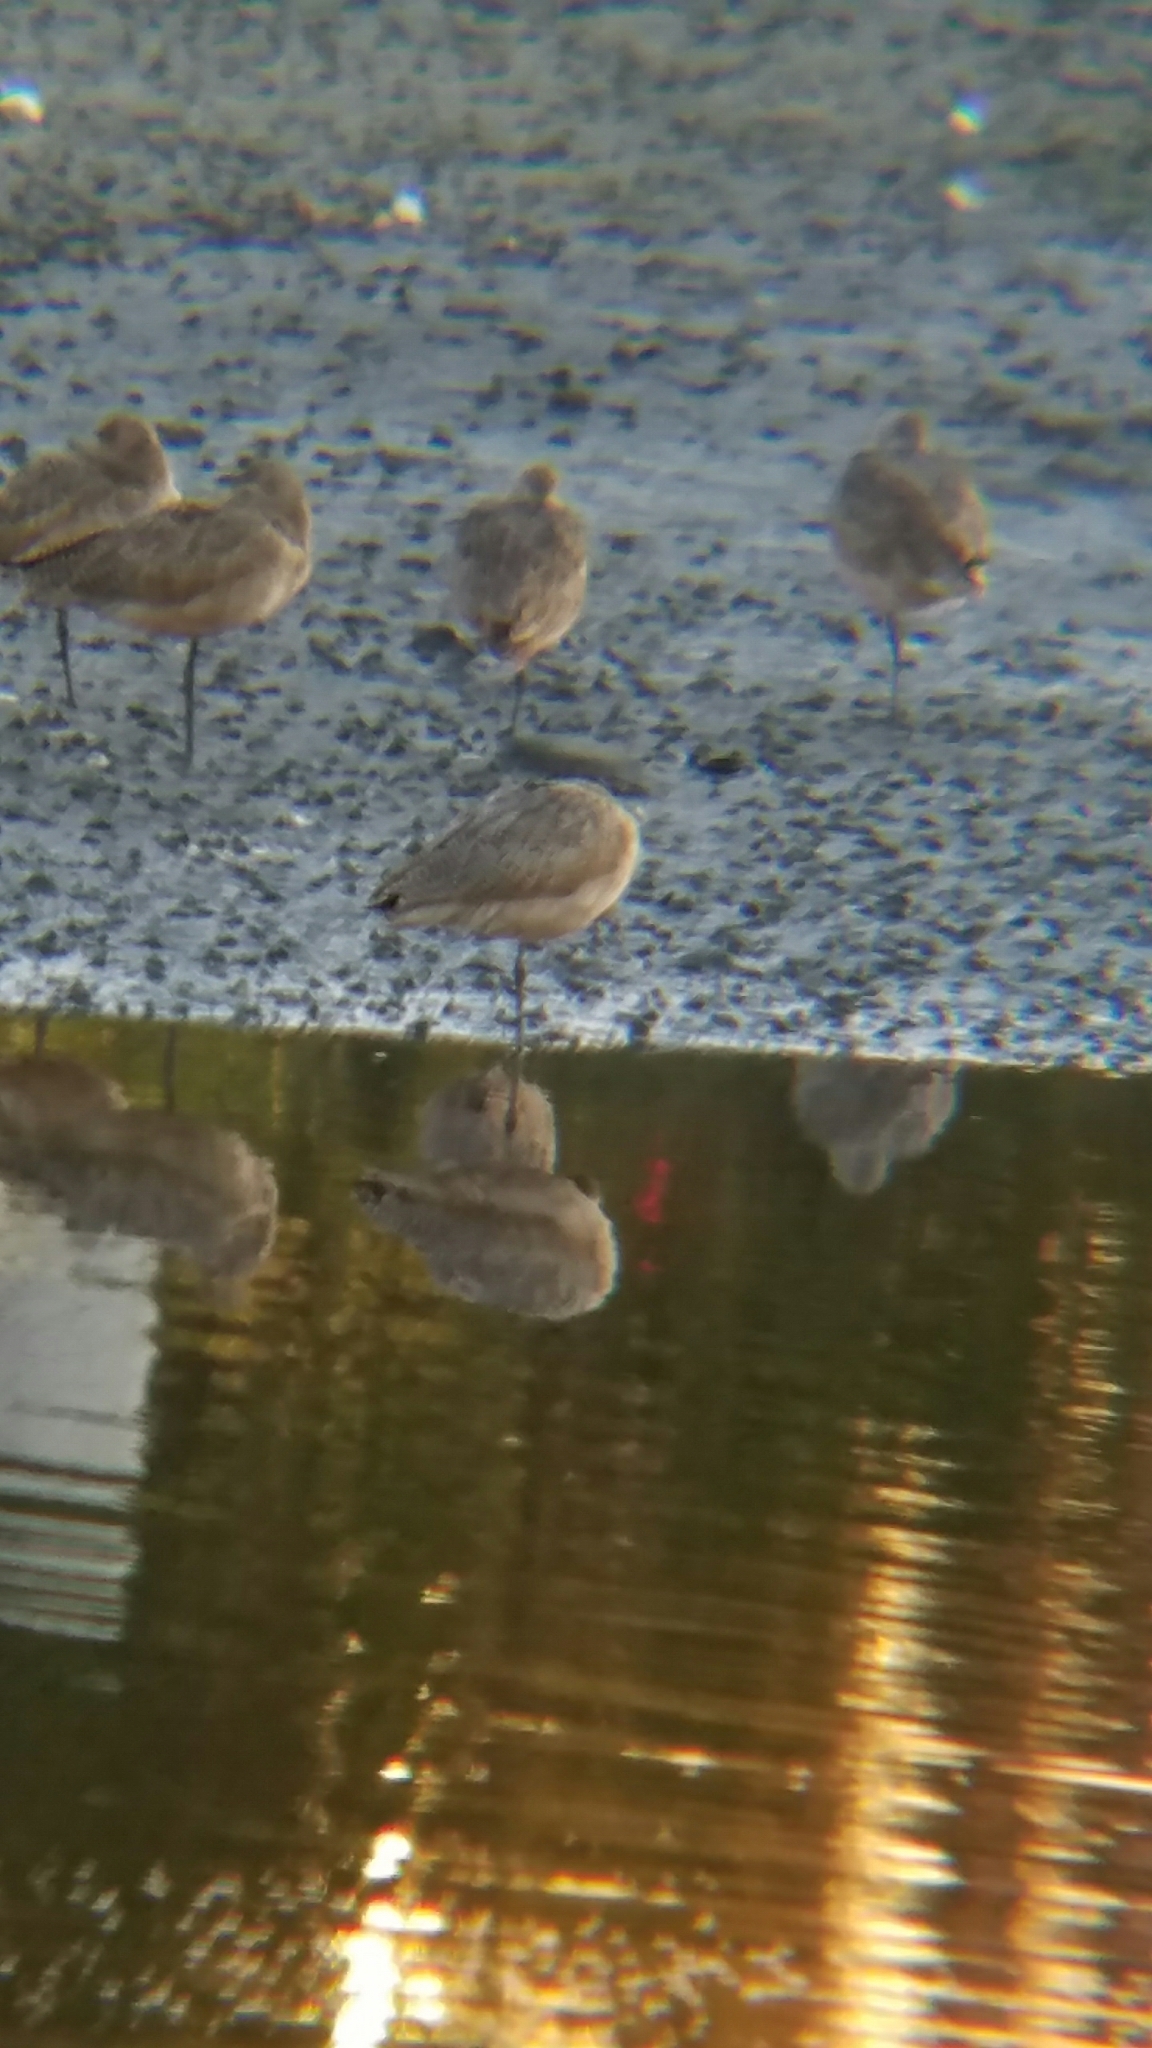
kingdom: Animalia
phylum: Chordata
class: Aves
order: Charadriiformes
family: Scolopacidae
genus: Limosa
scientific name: Limosa fedoa
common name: Marbled godwit
